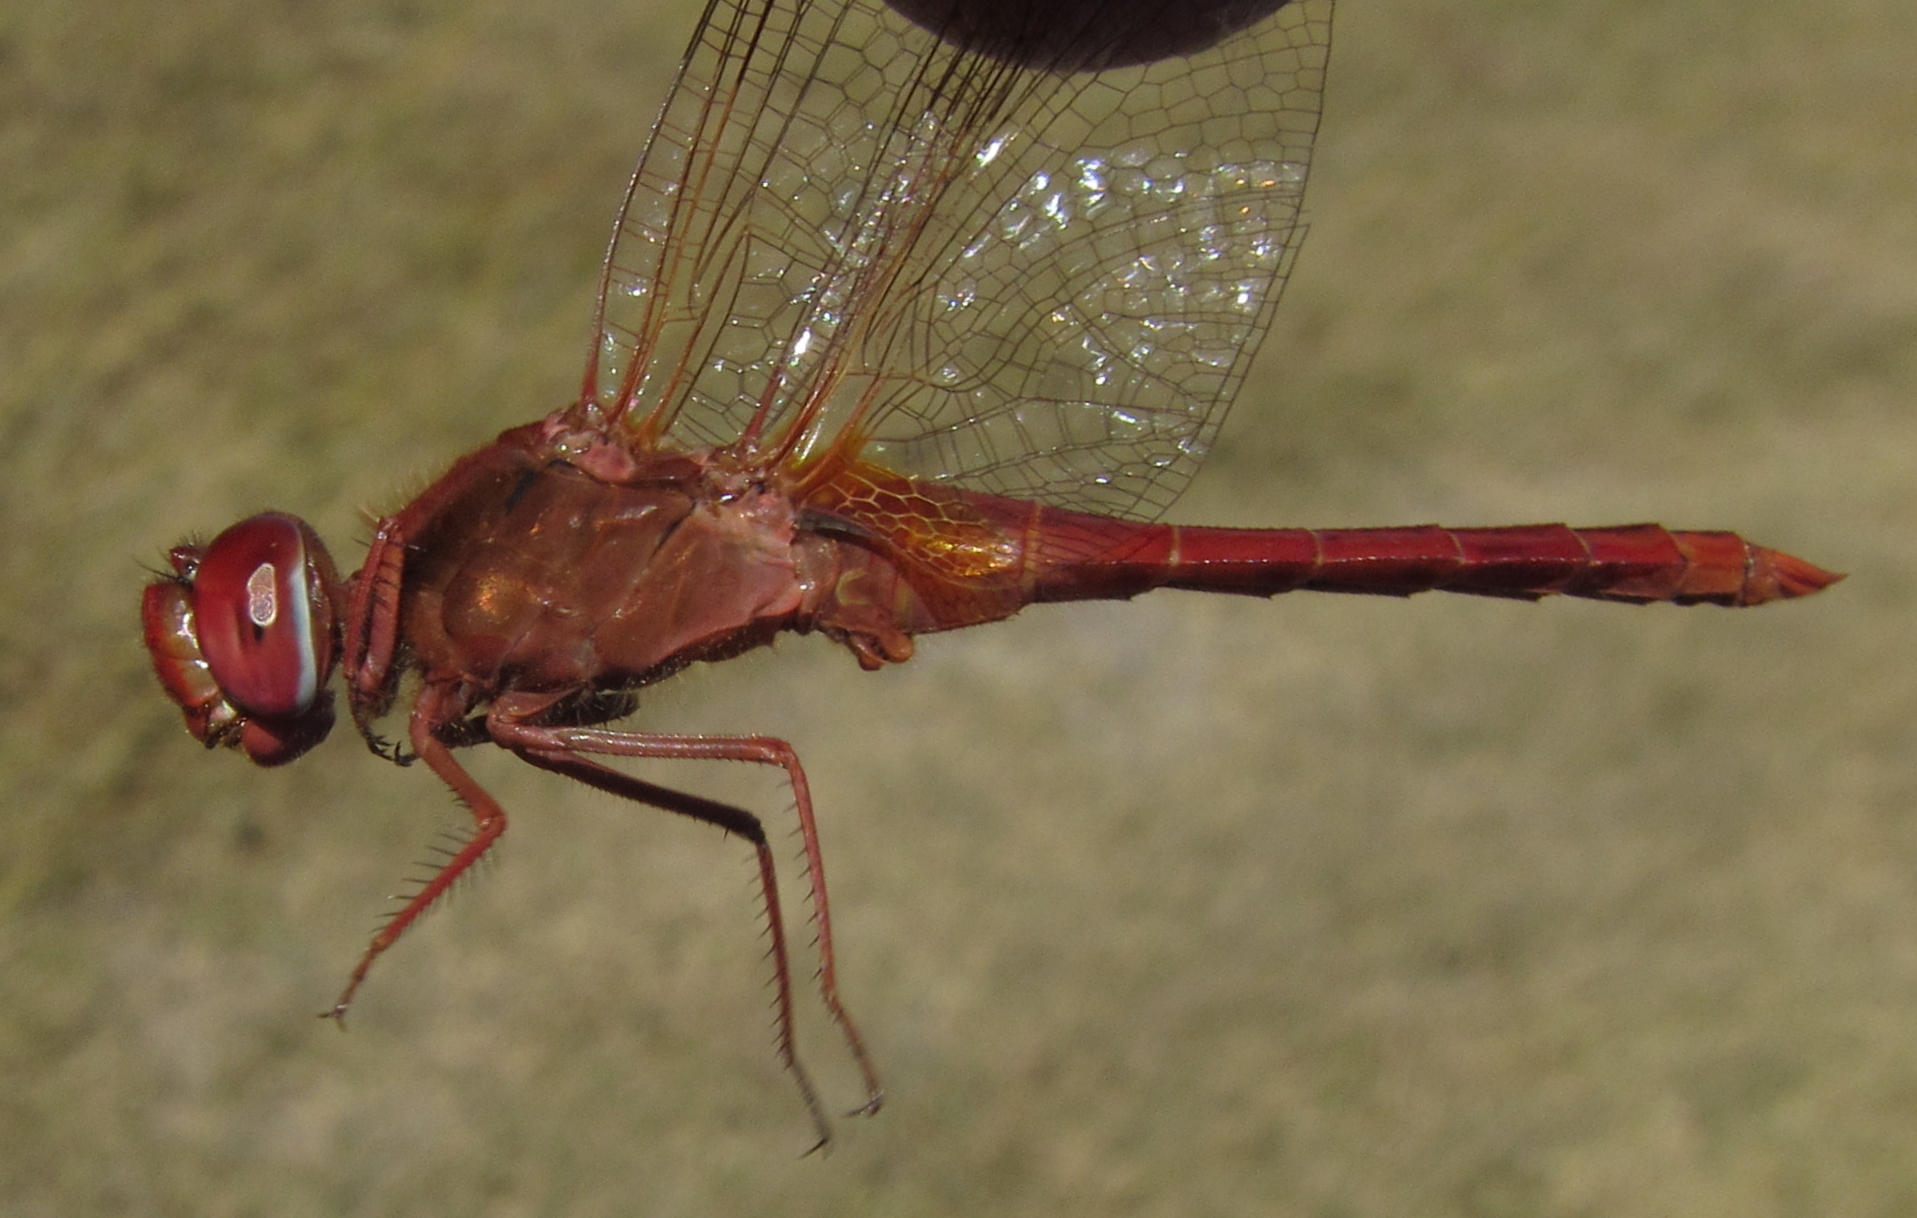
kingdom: Animalia
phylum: Arthropoda
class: Insecta
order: Odonata
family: Libellulidae
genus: Crocothemis
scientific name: Crocothemis erythraea
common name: Scarlet dragonfly
